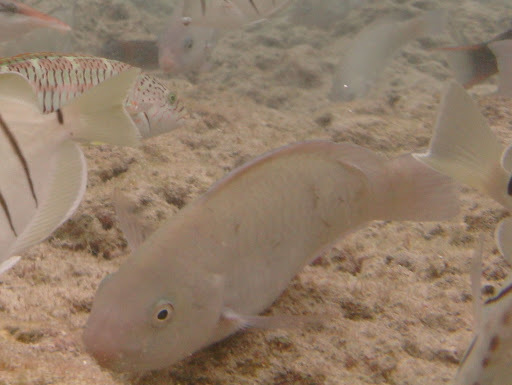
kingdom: Animalia
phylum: Chordata
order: Perciformes
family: Scaridae
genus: Scarus
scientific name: Scarus psittacus
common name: Palenose parrotfish
